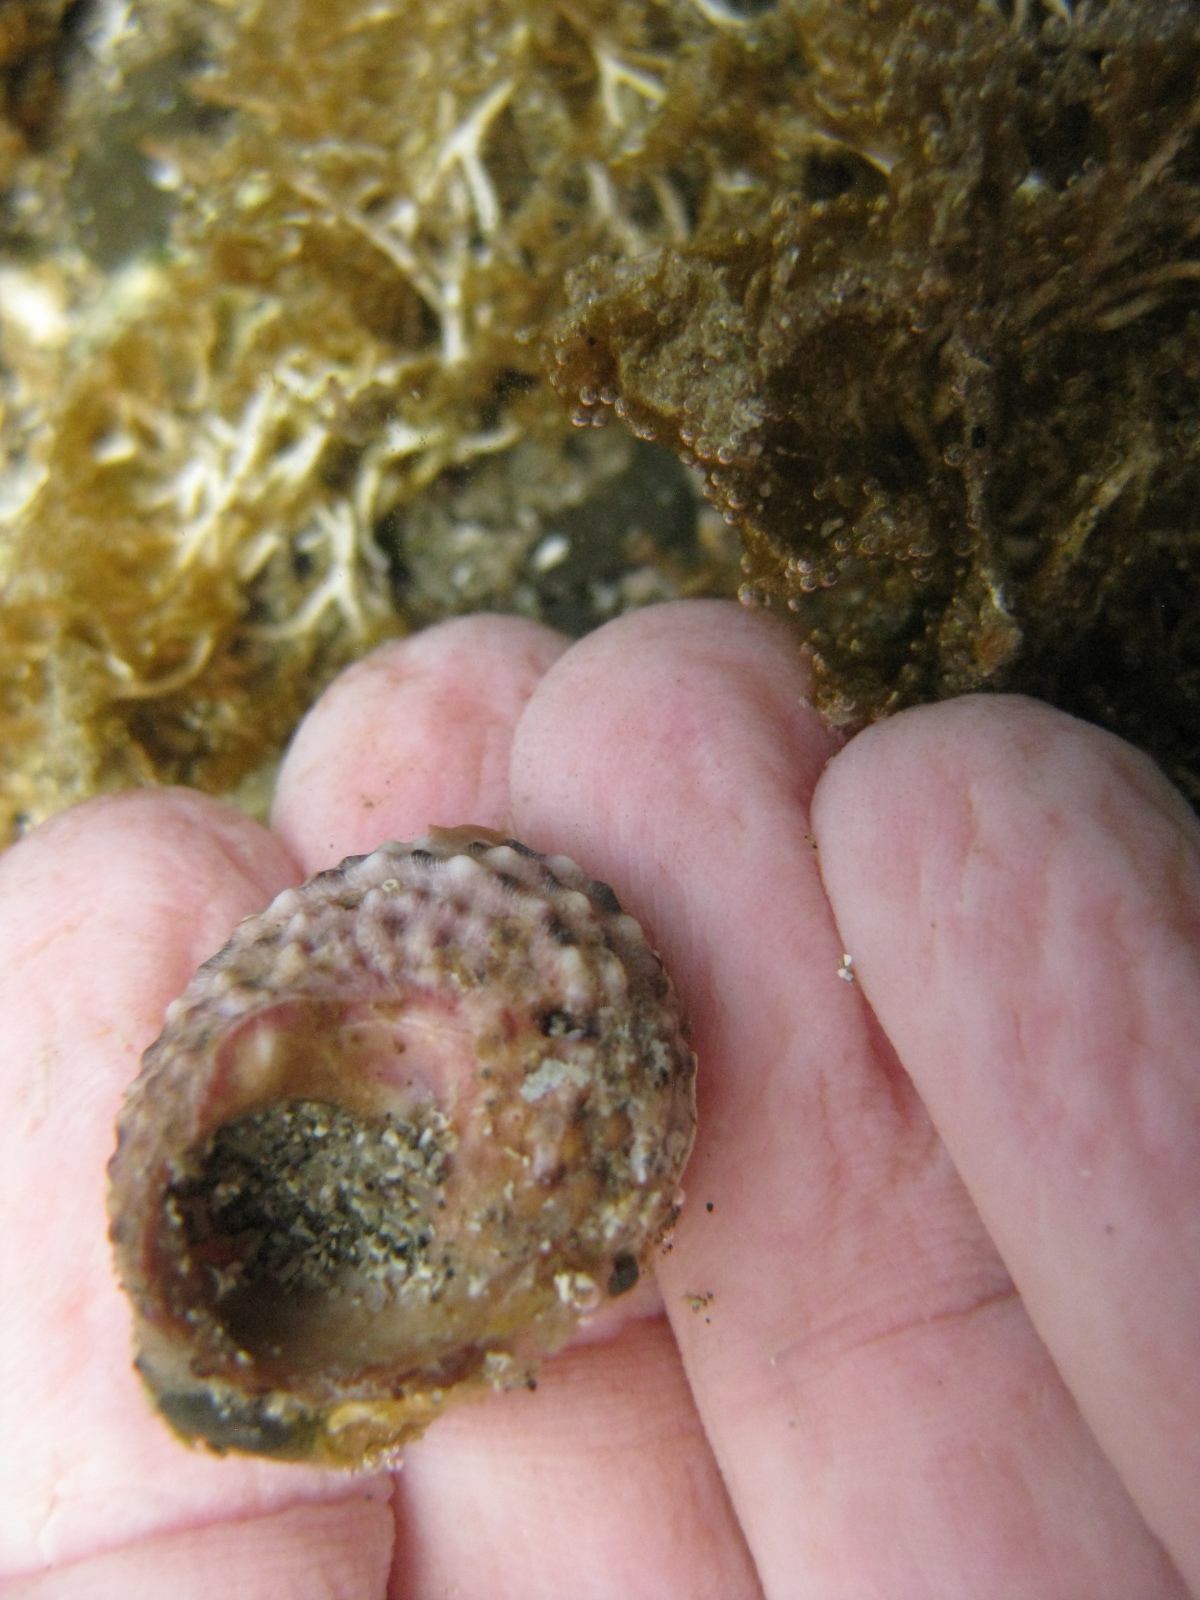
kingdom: Animalia
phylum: Mollusca
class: Gastropoda
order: Trochida
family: Turbinidae
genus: Modelia
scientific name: Modelia granosa
